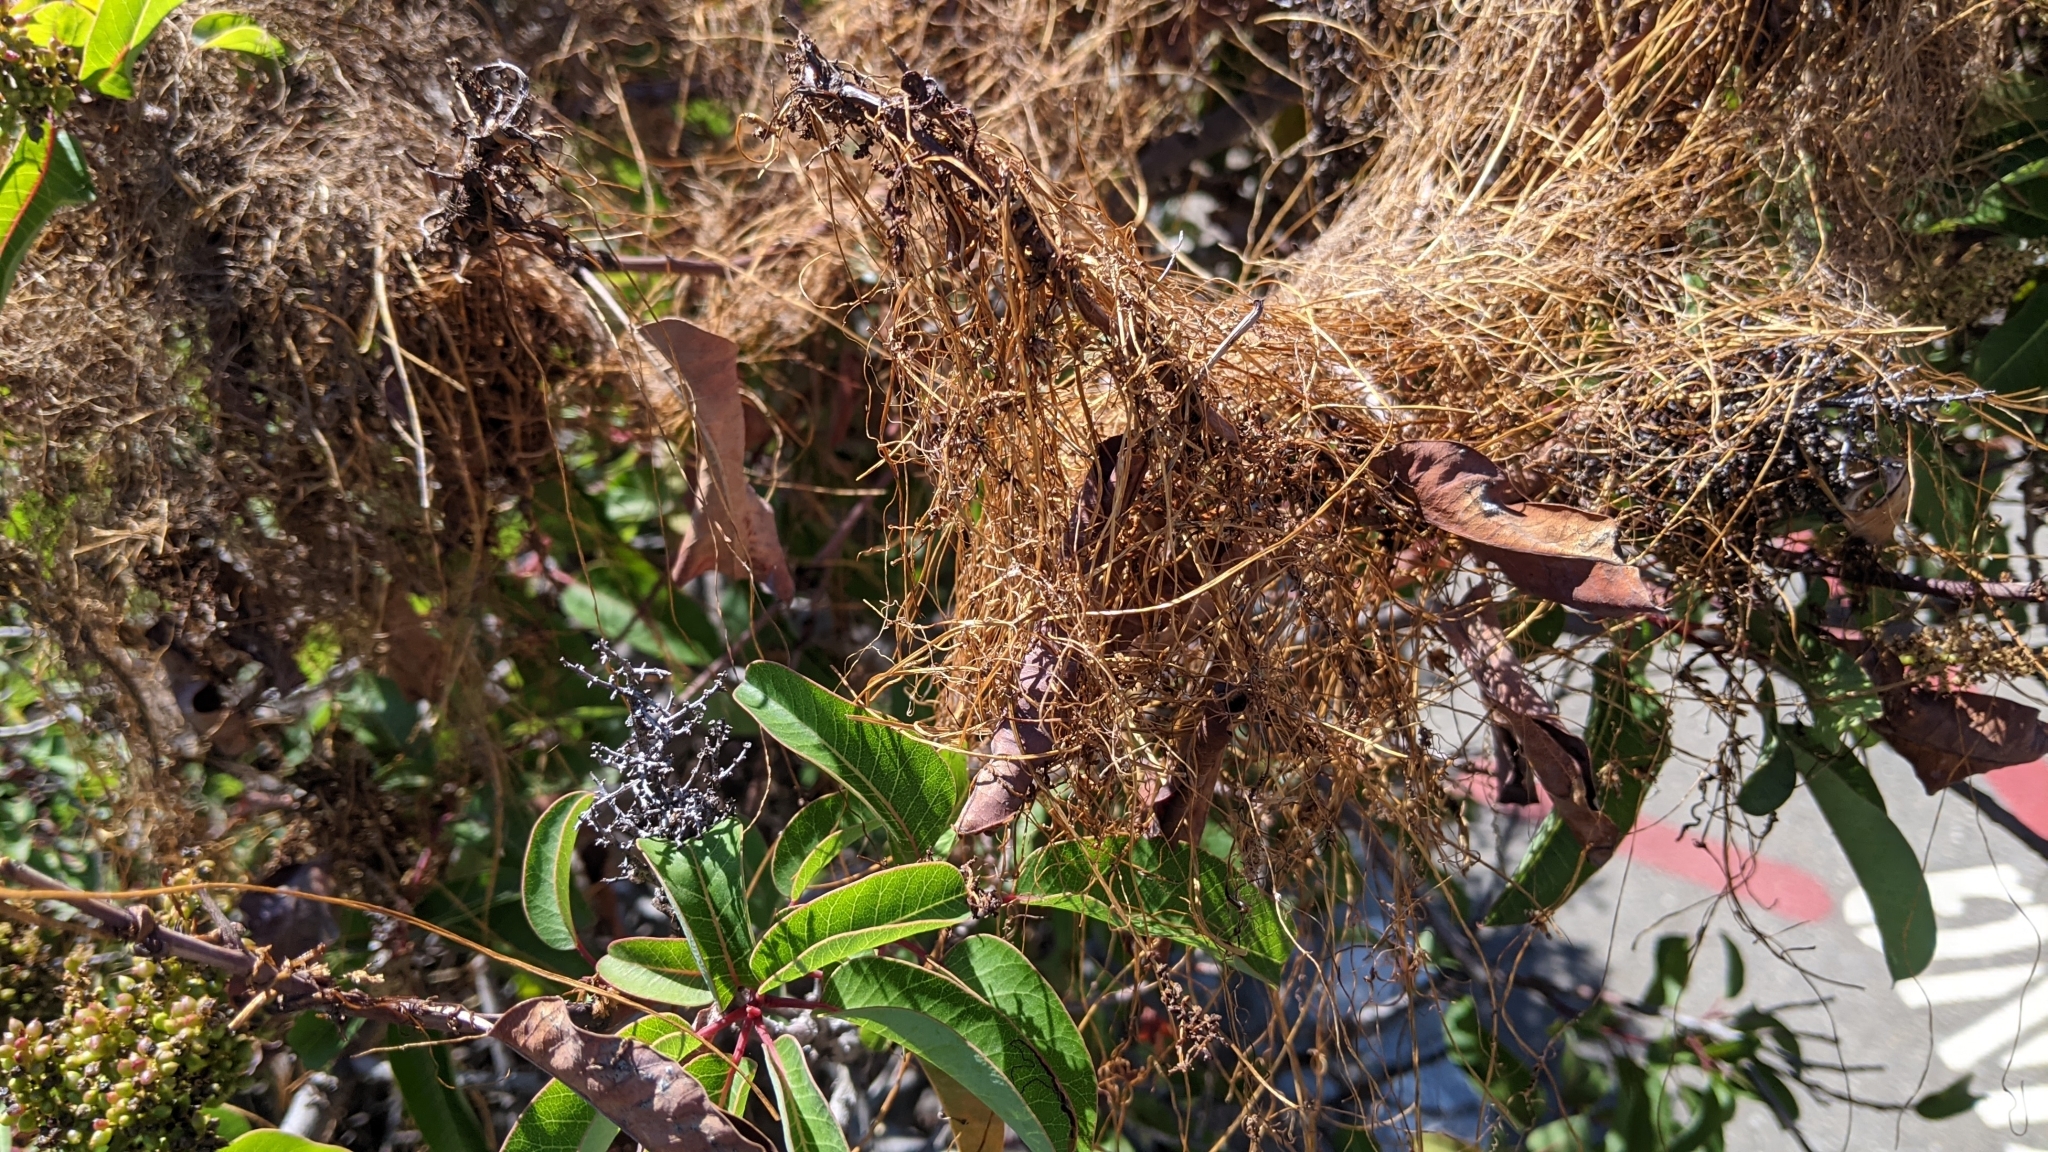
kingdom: Plantae
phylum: Tracheophyta
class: Magnoliopsida
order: Solanales
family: Convolvulaceae
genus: Cuscuta
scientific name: Cuscuta subinclusa
